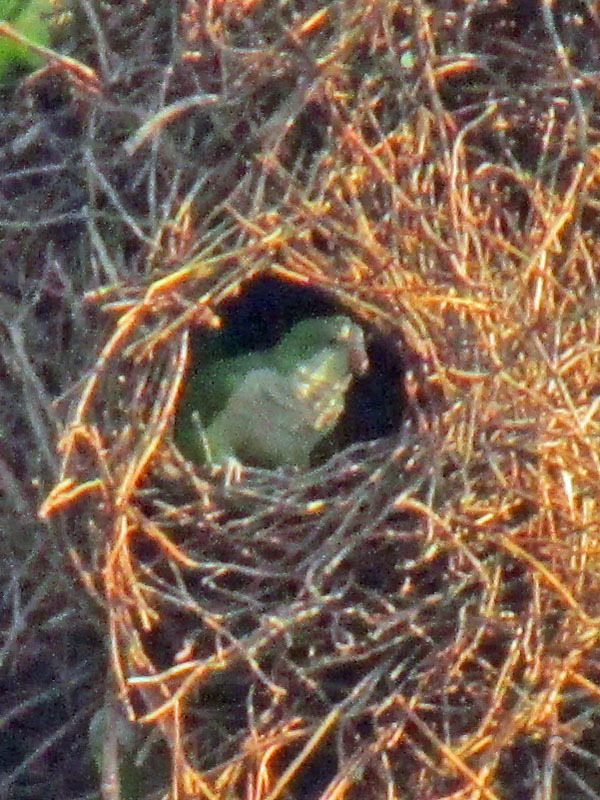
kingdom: Animalia
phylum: Chordata
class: Aves
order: Psittaciformes
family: Psittacidae
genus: Myiopsitta
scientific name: Myiopsitta monachus
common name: Monk parakeet
